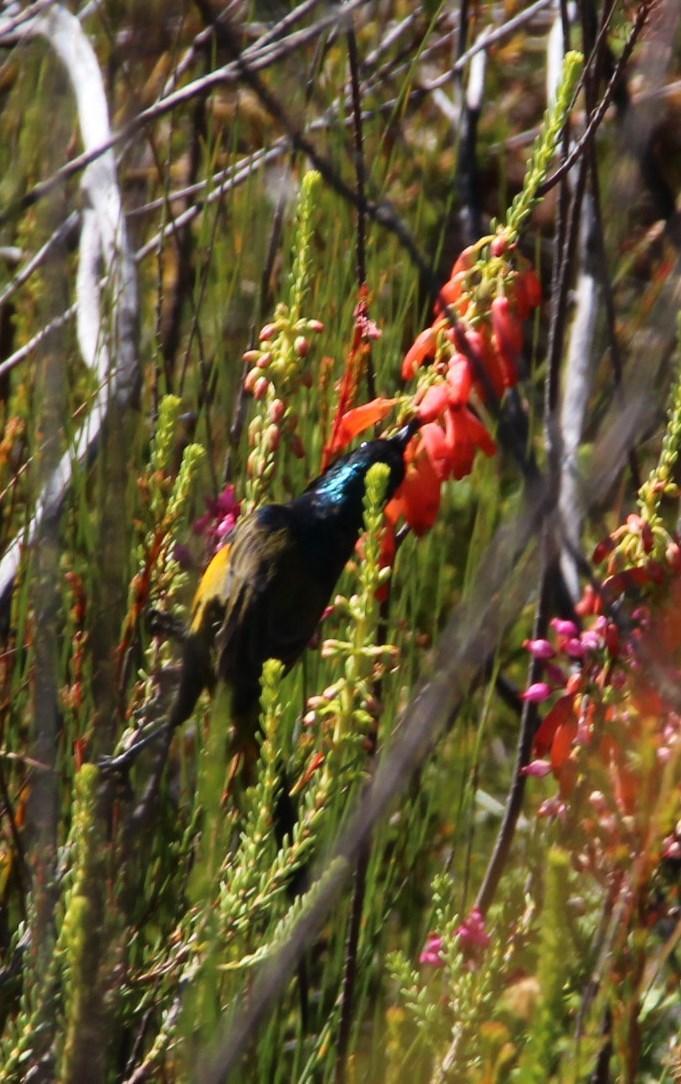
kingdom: Animalia
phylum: Chordata
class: Aves
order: Passeriformes
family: Nectariniidae
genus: Anthobaphes
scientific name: Anthobaphes violacea
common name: Orange-breasted sunbird
